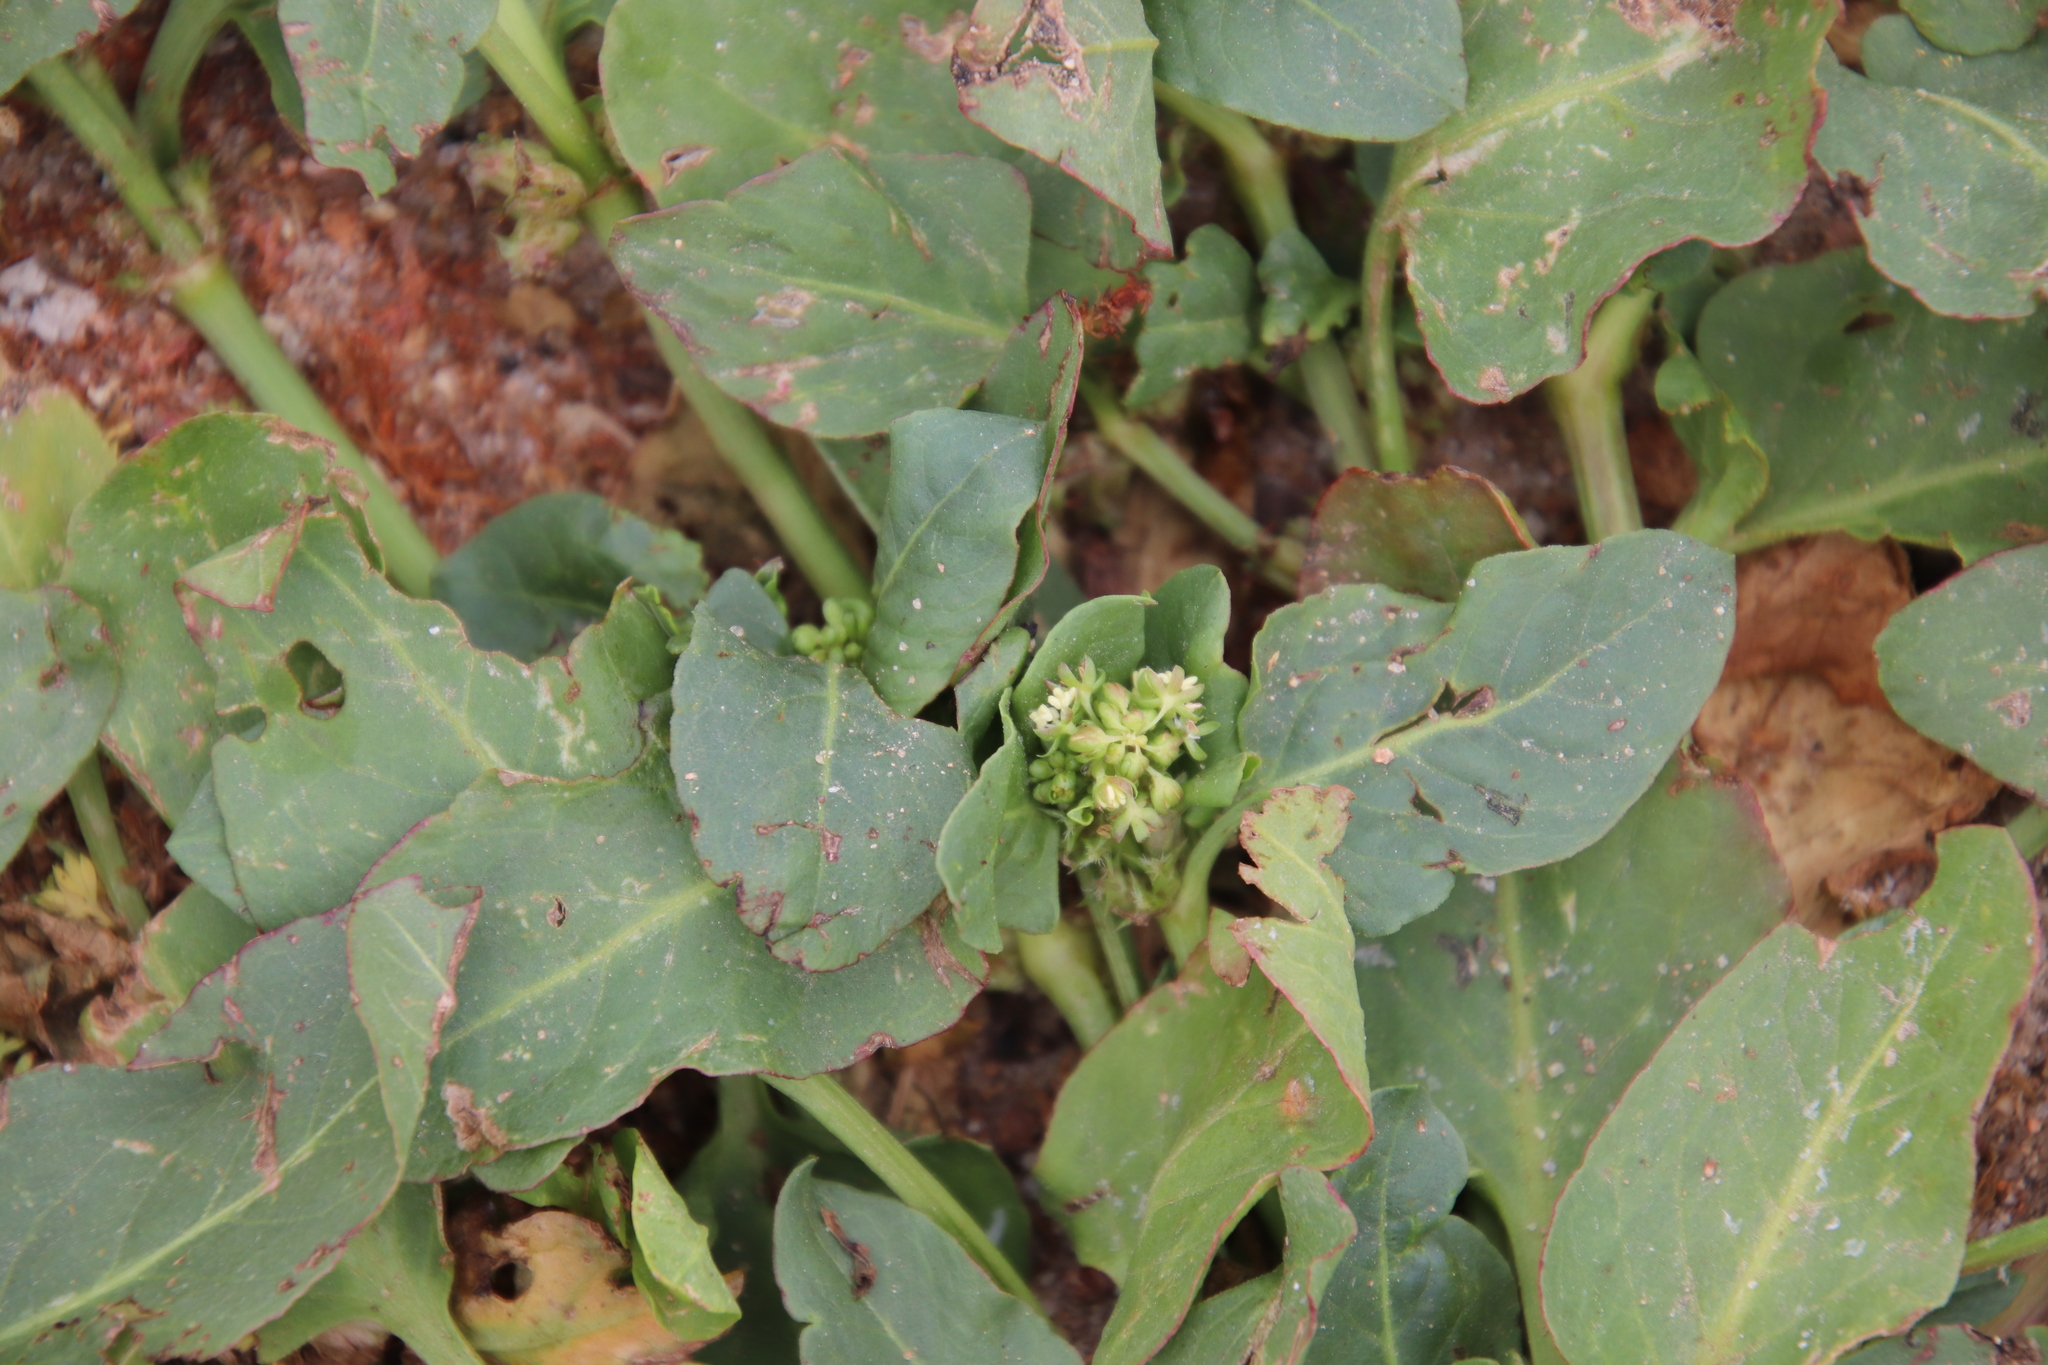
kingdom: Plantae
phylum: Tracheophyta
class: Magnoliopsida
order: Caryophyllales
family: Polygonaceae
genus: Rumex
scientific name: Rumex spinosus
